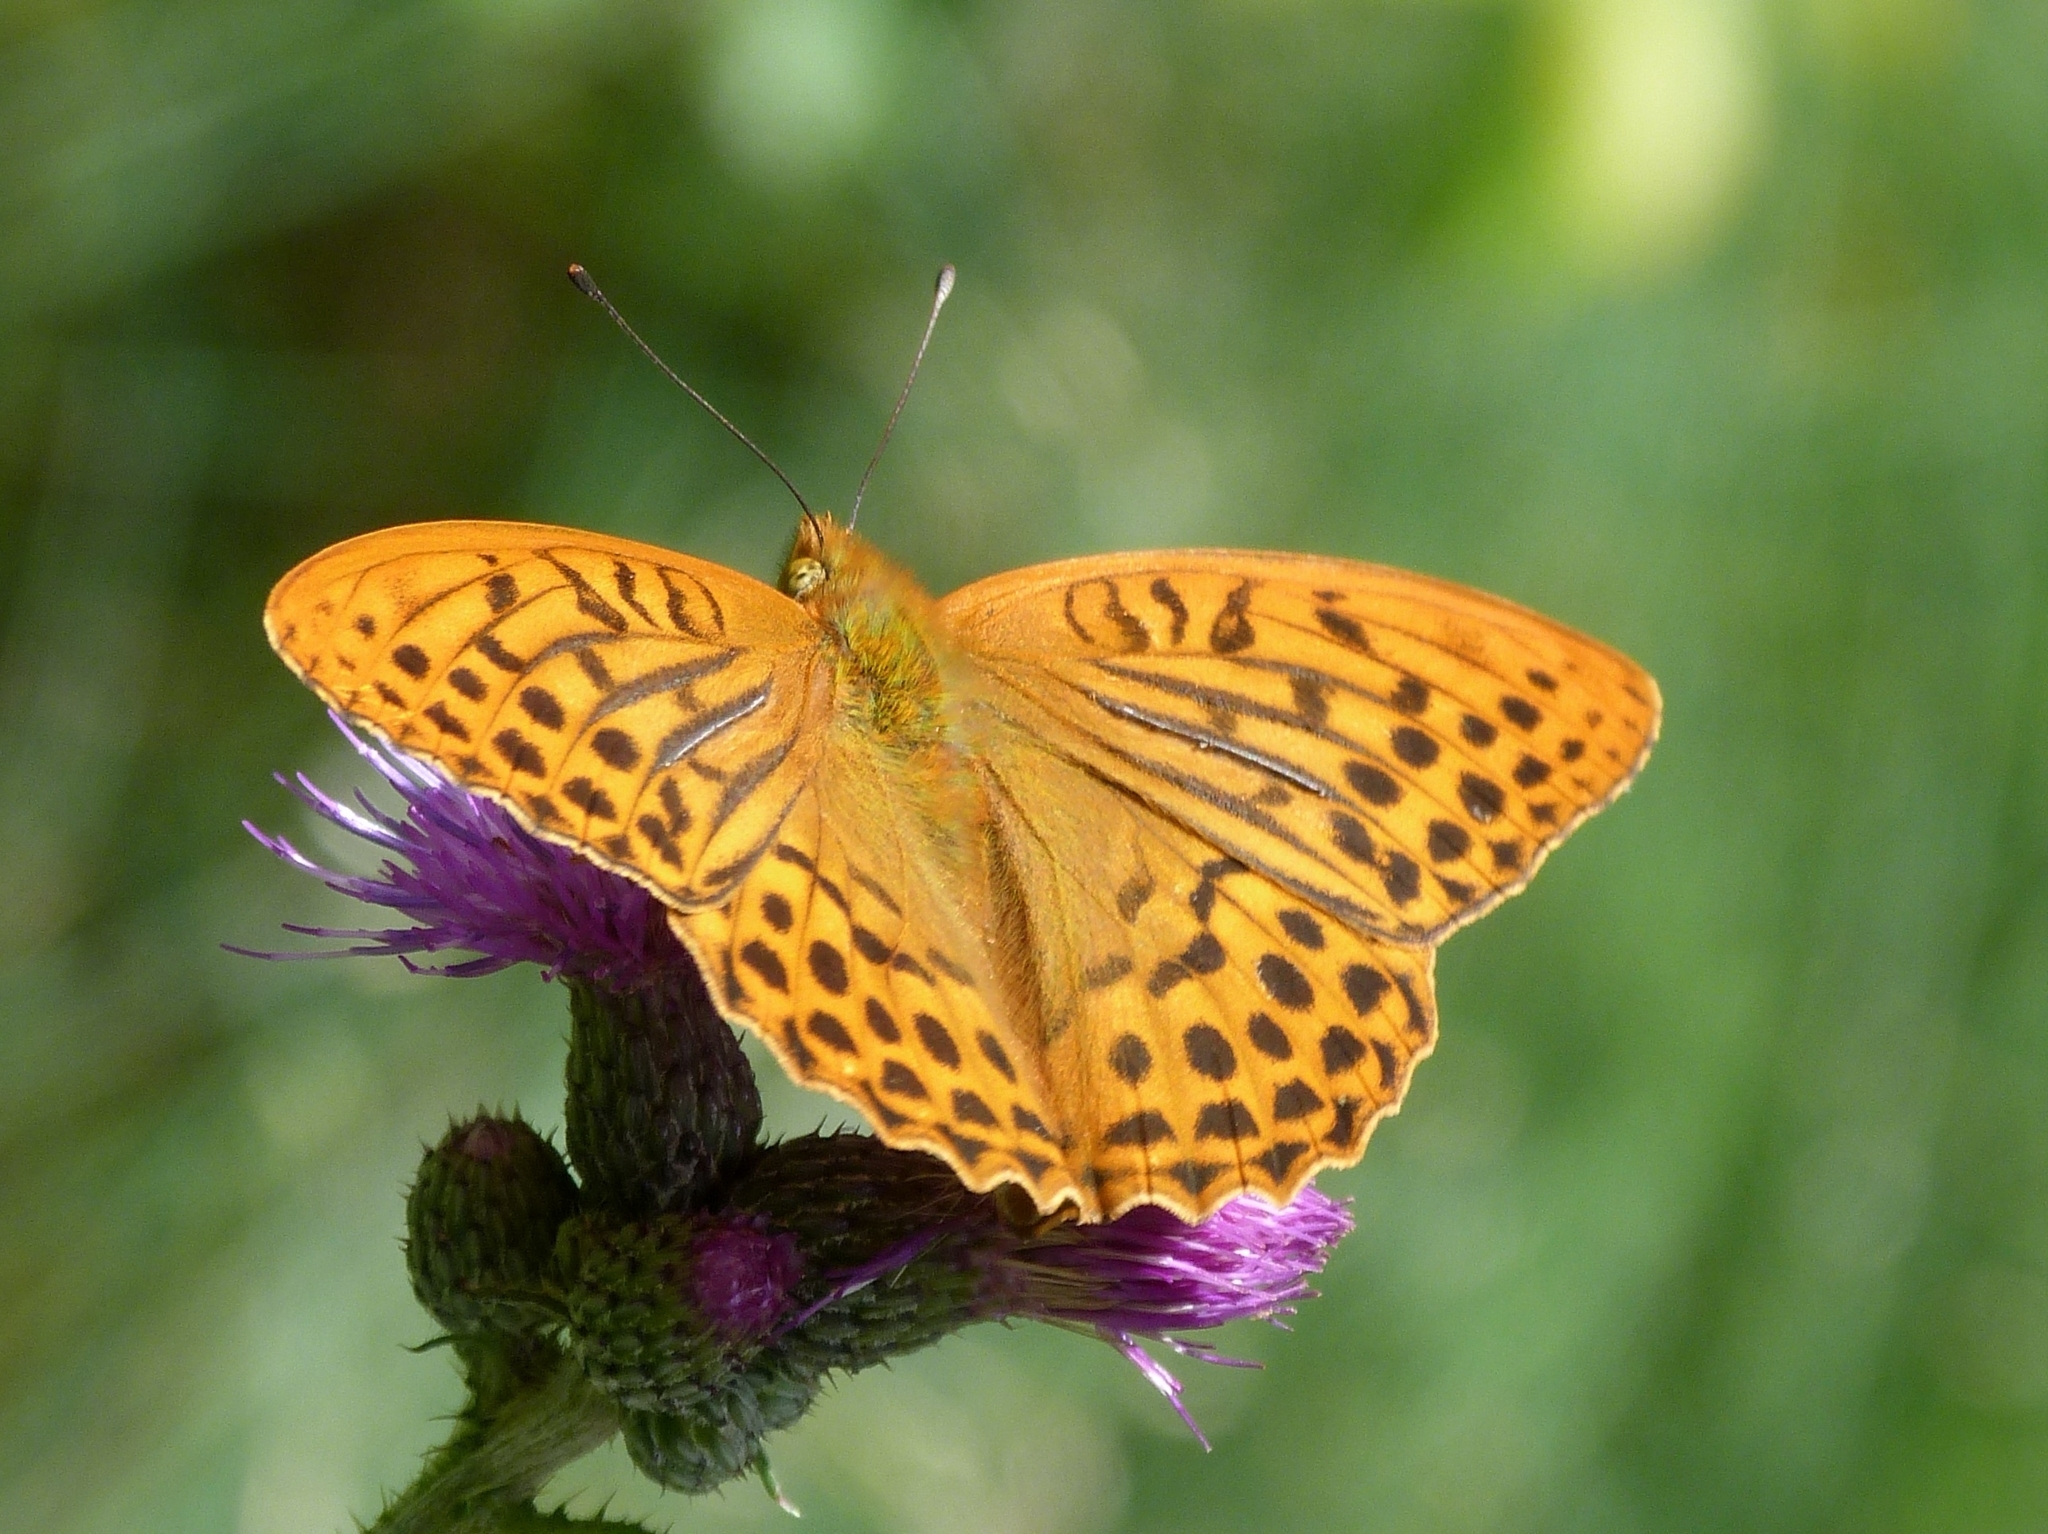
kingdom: Animalia
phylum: Arthropoda
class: Insecta
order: Lepidoptera
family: Nymphalidae
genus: Argynnis
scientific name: Argynnis paphia
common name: Silver-washed fritillary
